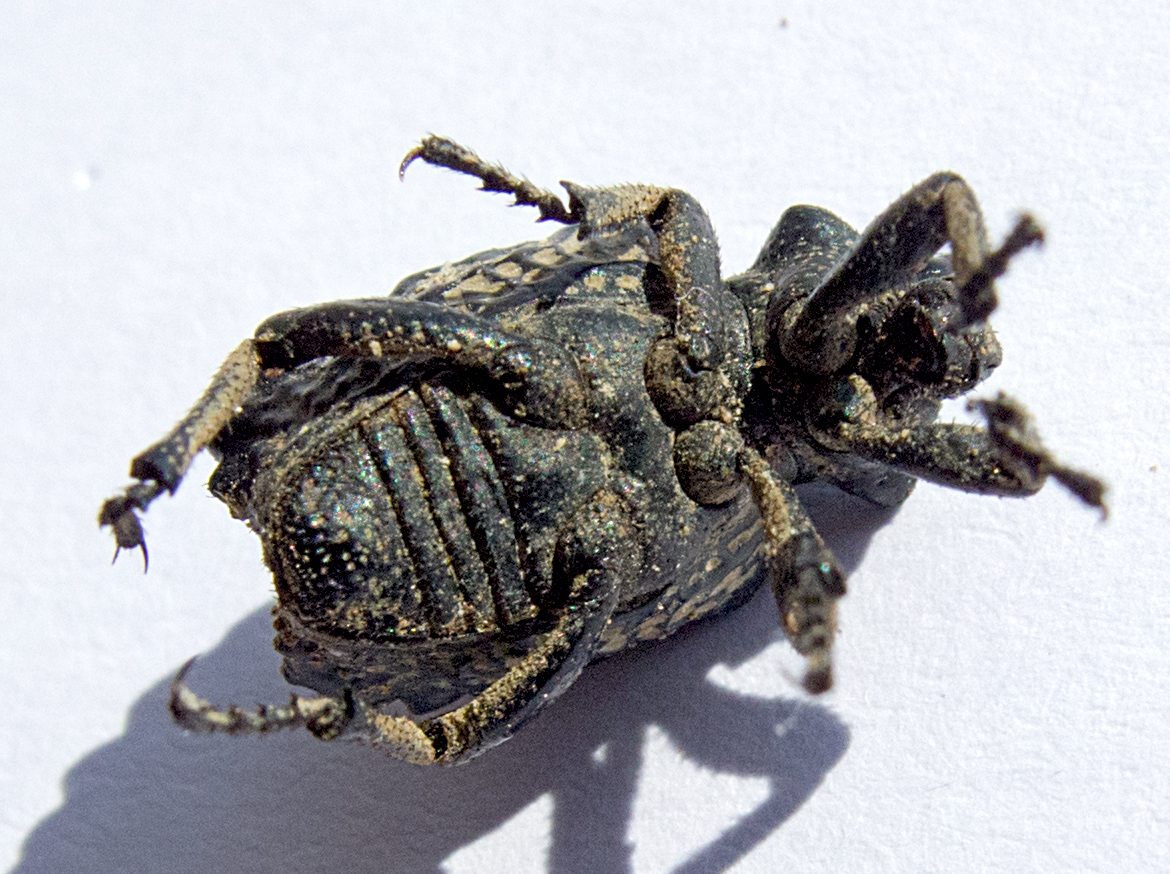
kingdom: Animalia
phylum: Arthropoda
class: Insecta
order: Coleoptera
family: Brachyceridae
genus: Brachycerus
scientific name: Brachycerus undatus
